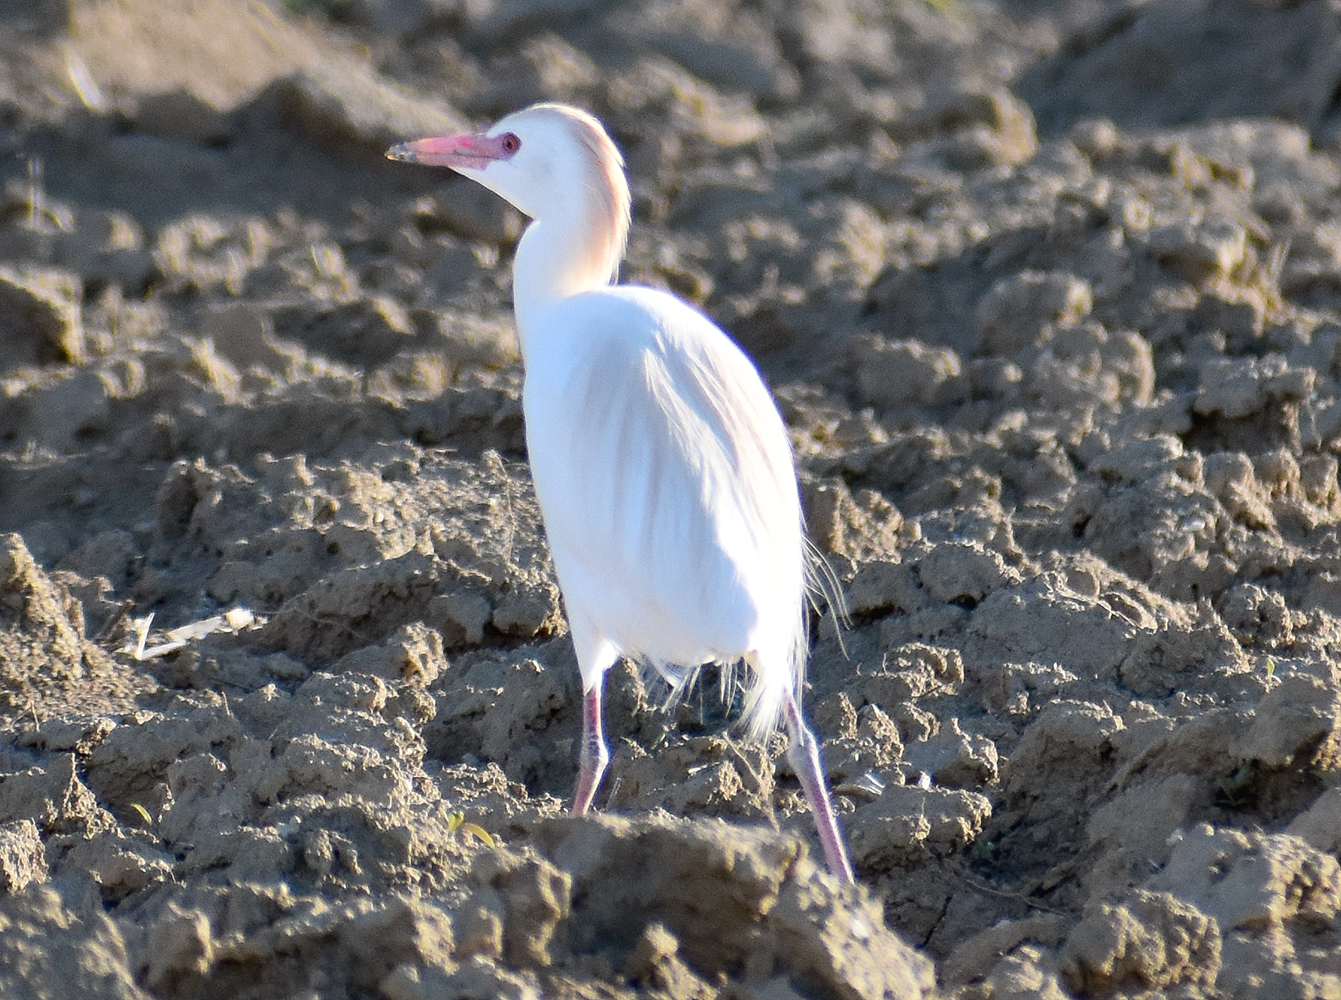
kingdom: Animalia
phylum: Chordata
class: Aves
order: Pelecaniformes
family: Ardeidae
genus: Bubulcus
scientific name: Bubulcus ibis
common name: Cattle egret
